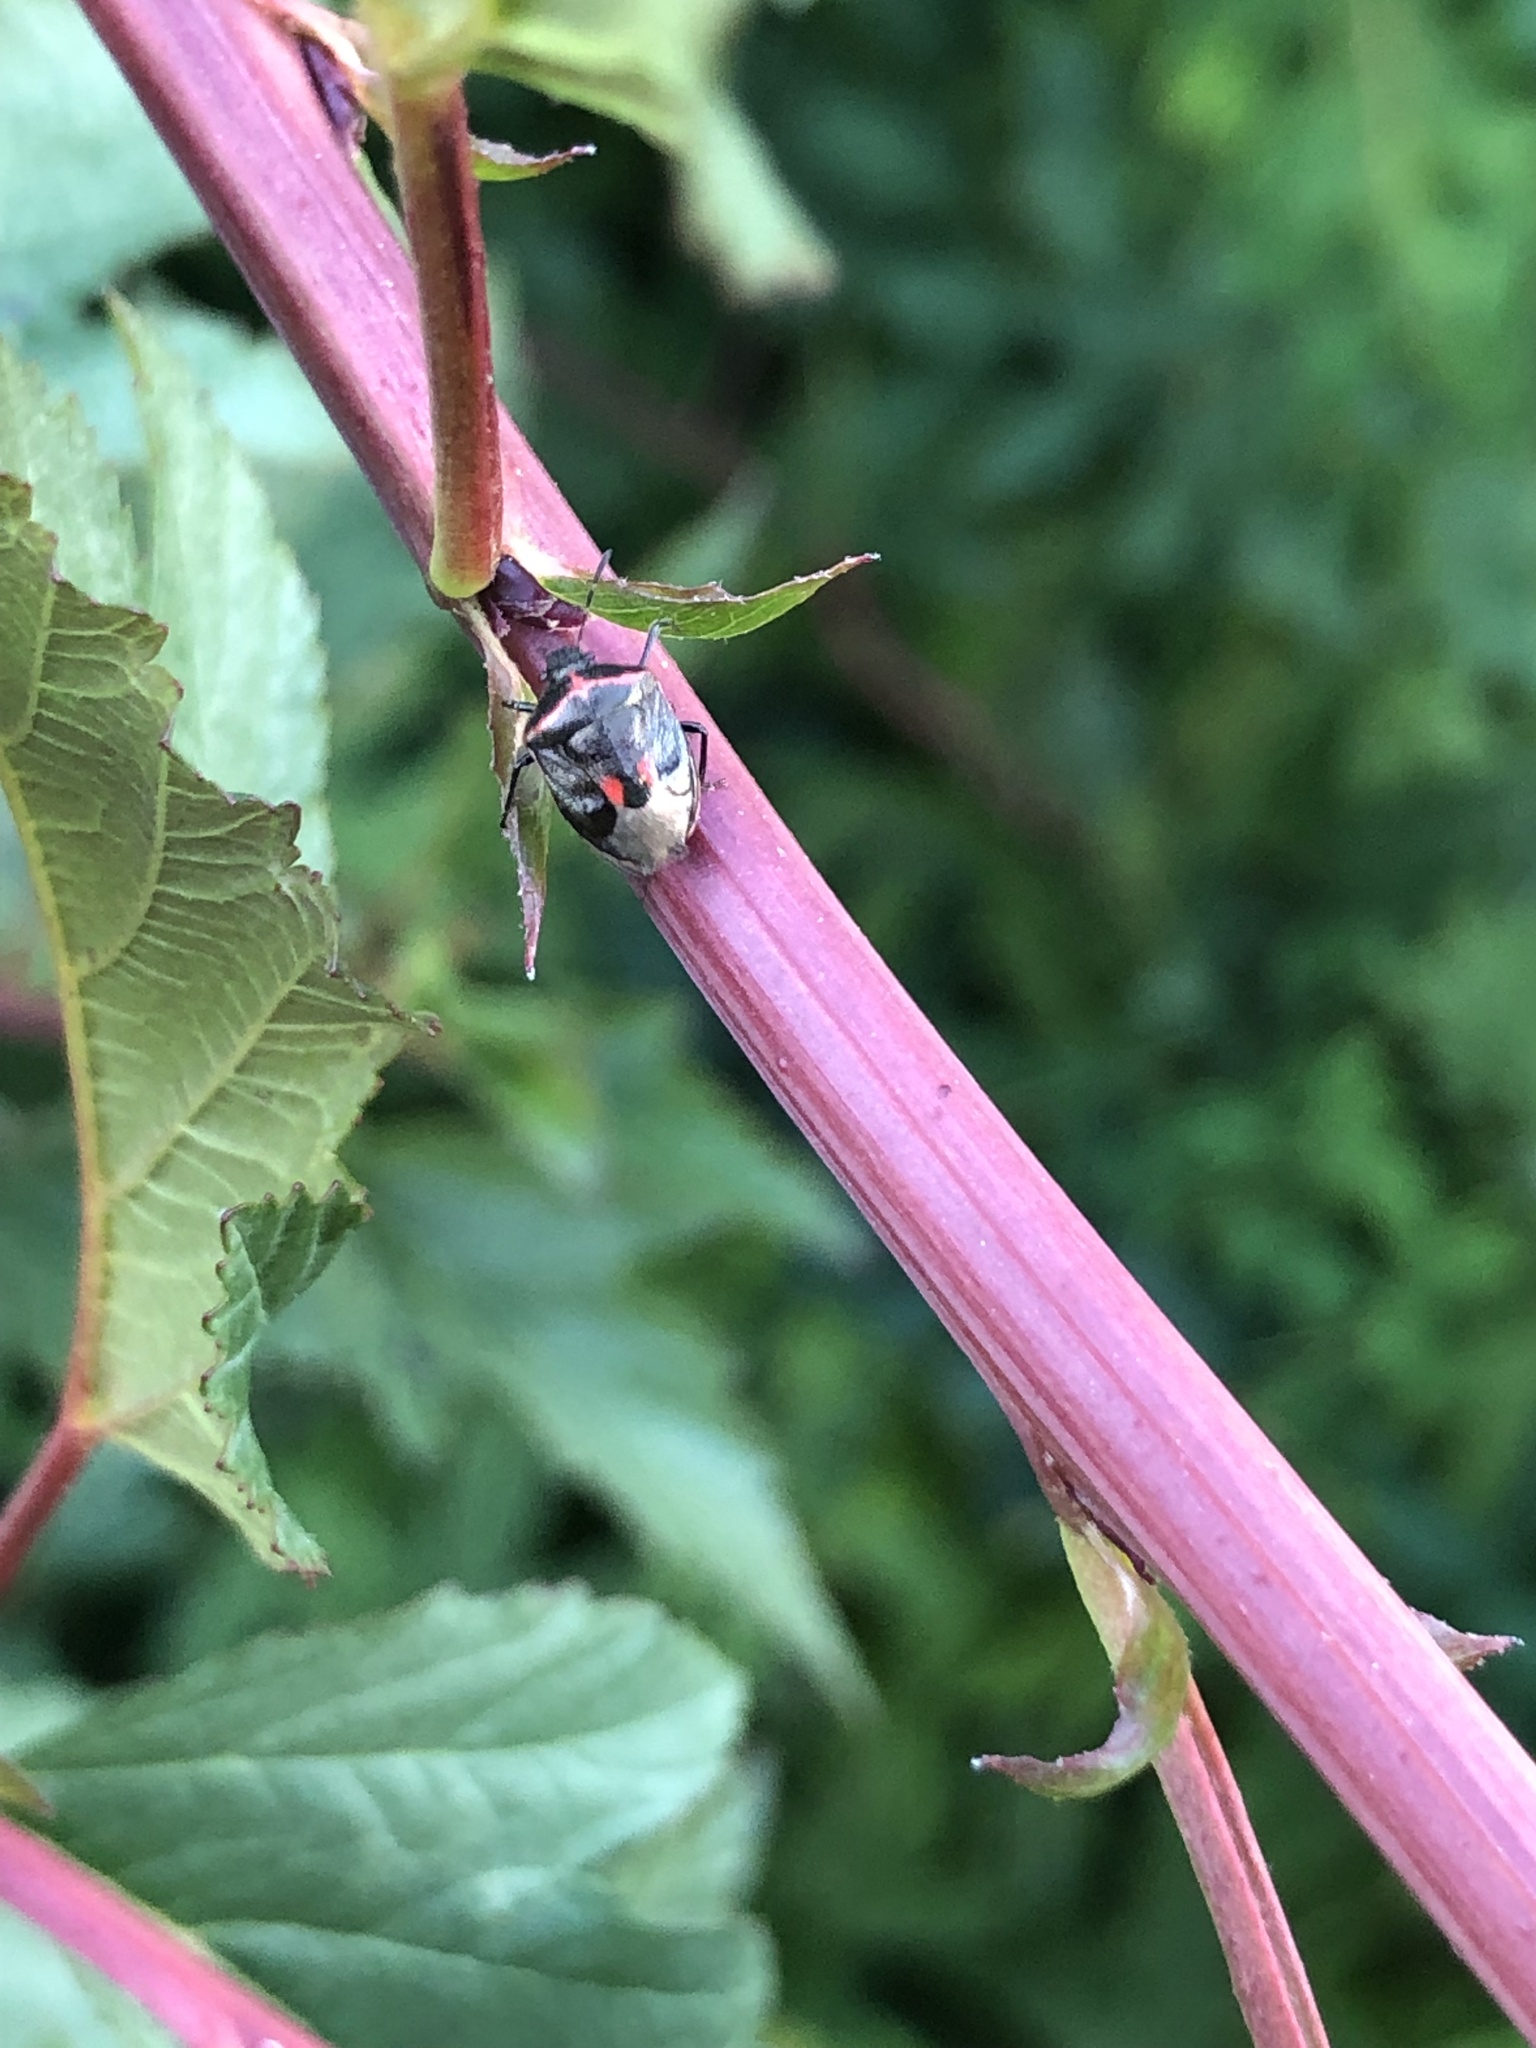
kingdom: Animalia
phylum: Arthropoda
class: Insecta
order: Hemiptera
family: Pentatomidae
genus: Cosmopepla
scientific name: Cosmopepla lintneriana
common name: Twice-stabbed stink bug
